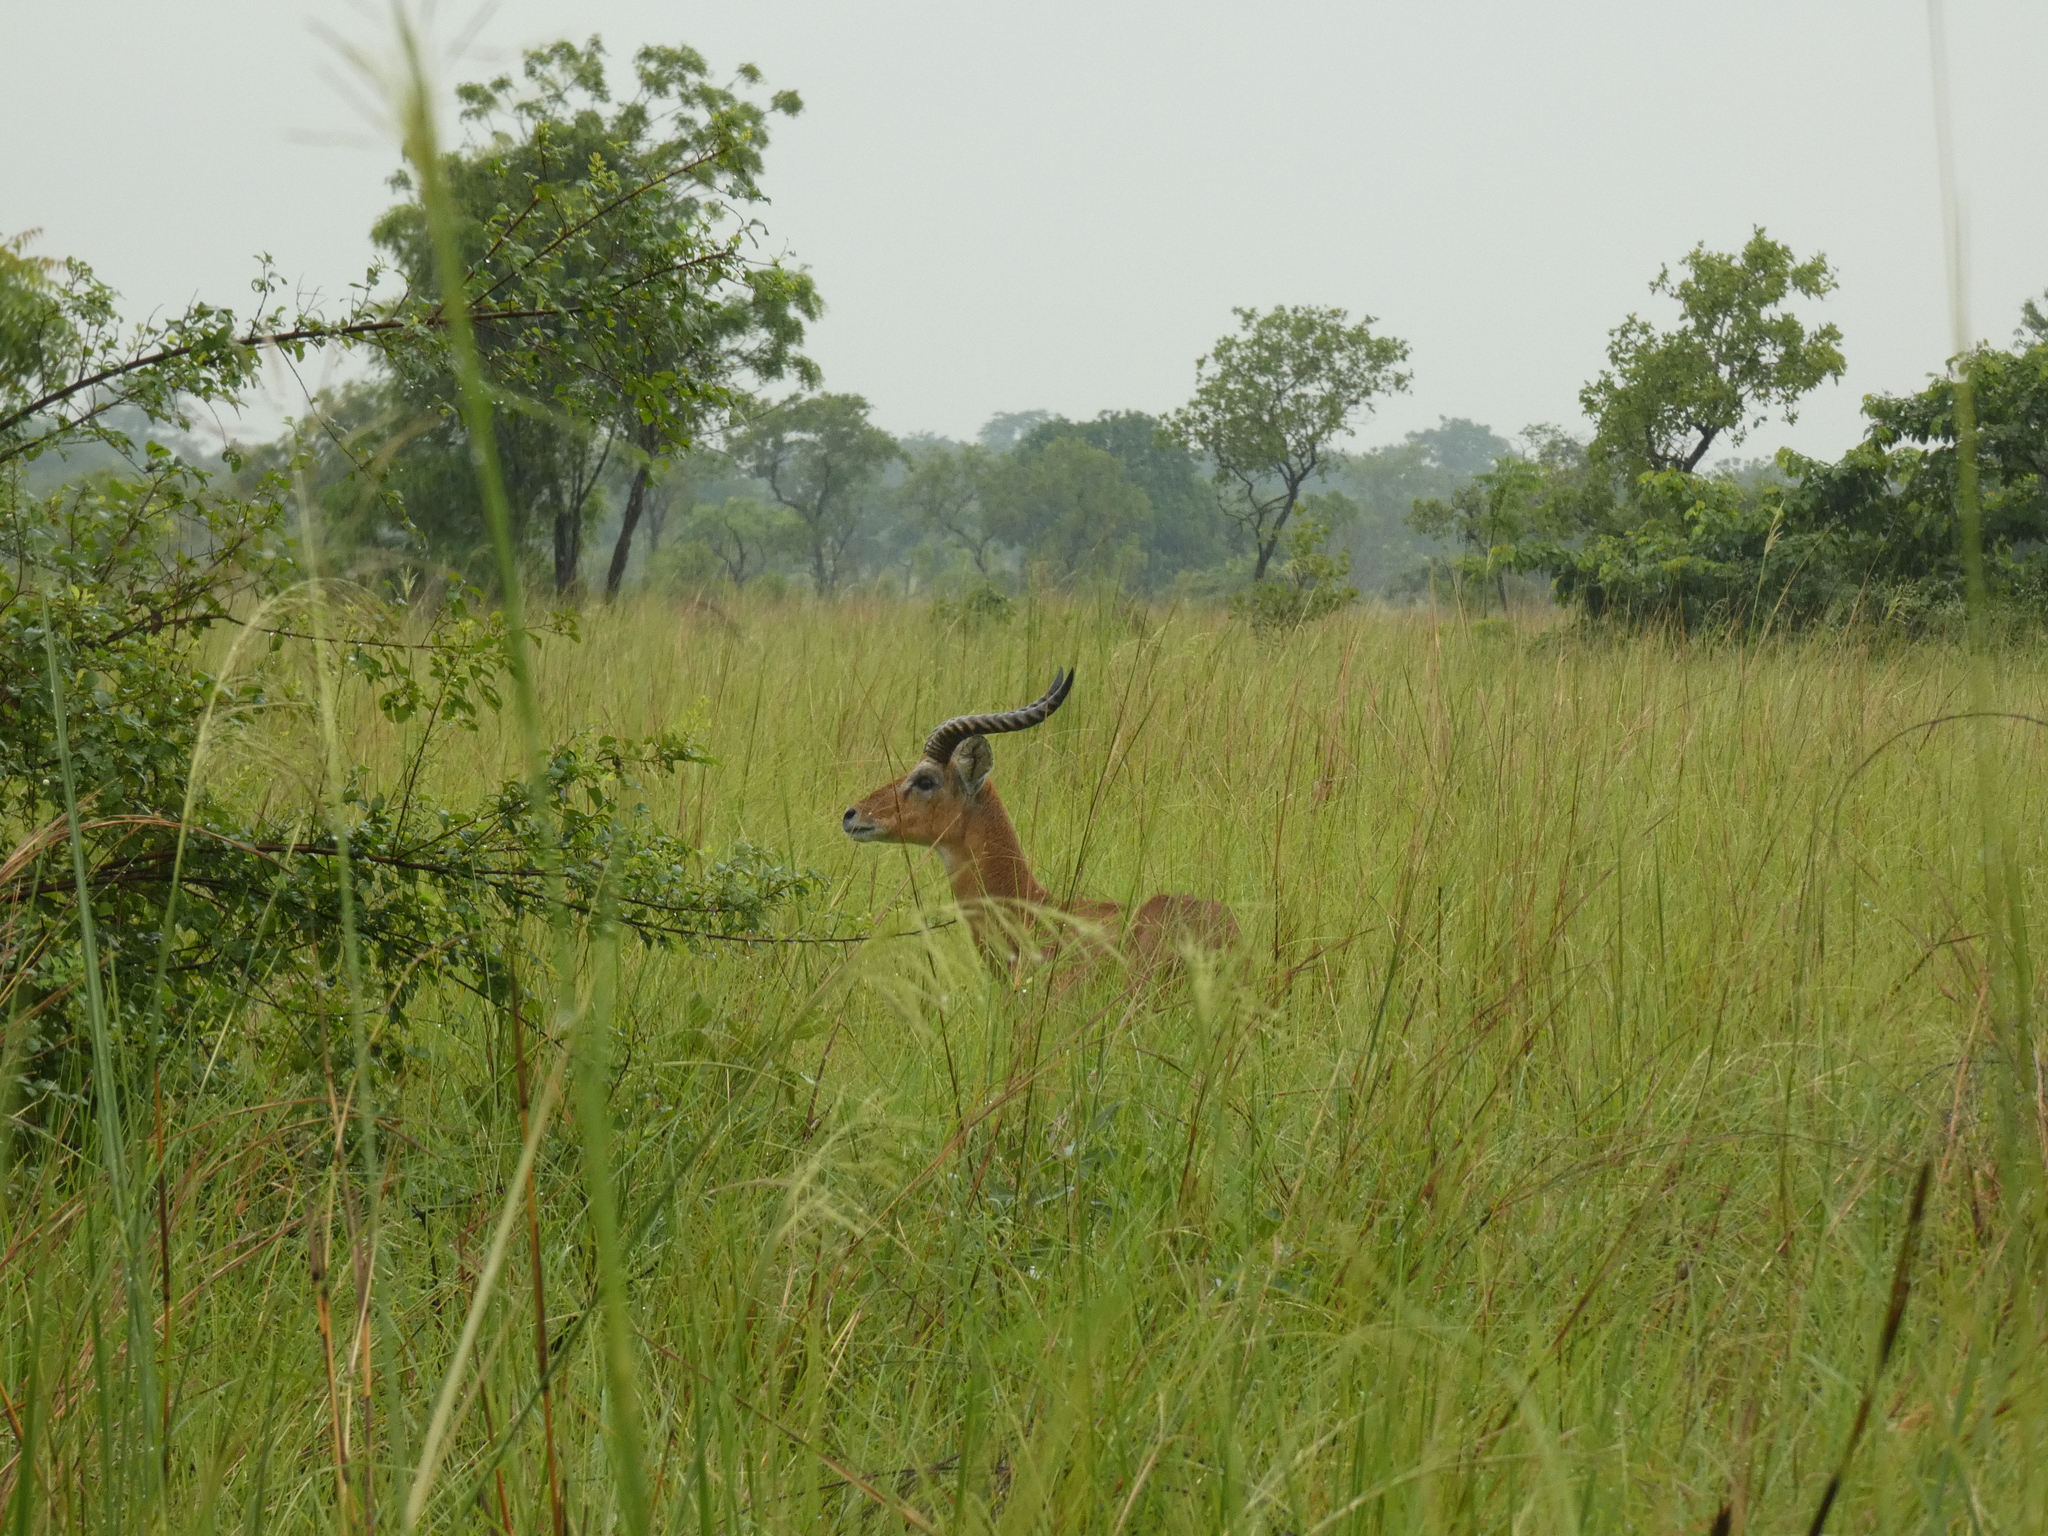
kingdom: Animalia
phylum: Chordata
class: Mammalia
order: Artiodactyla
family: Bovidae
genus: Kobus
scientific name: Kobus kob
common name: Kob
